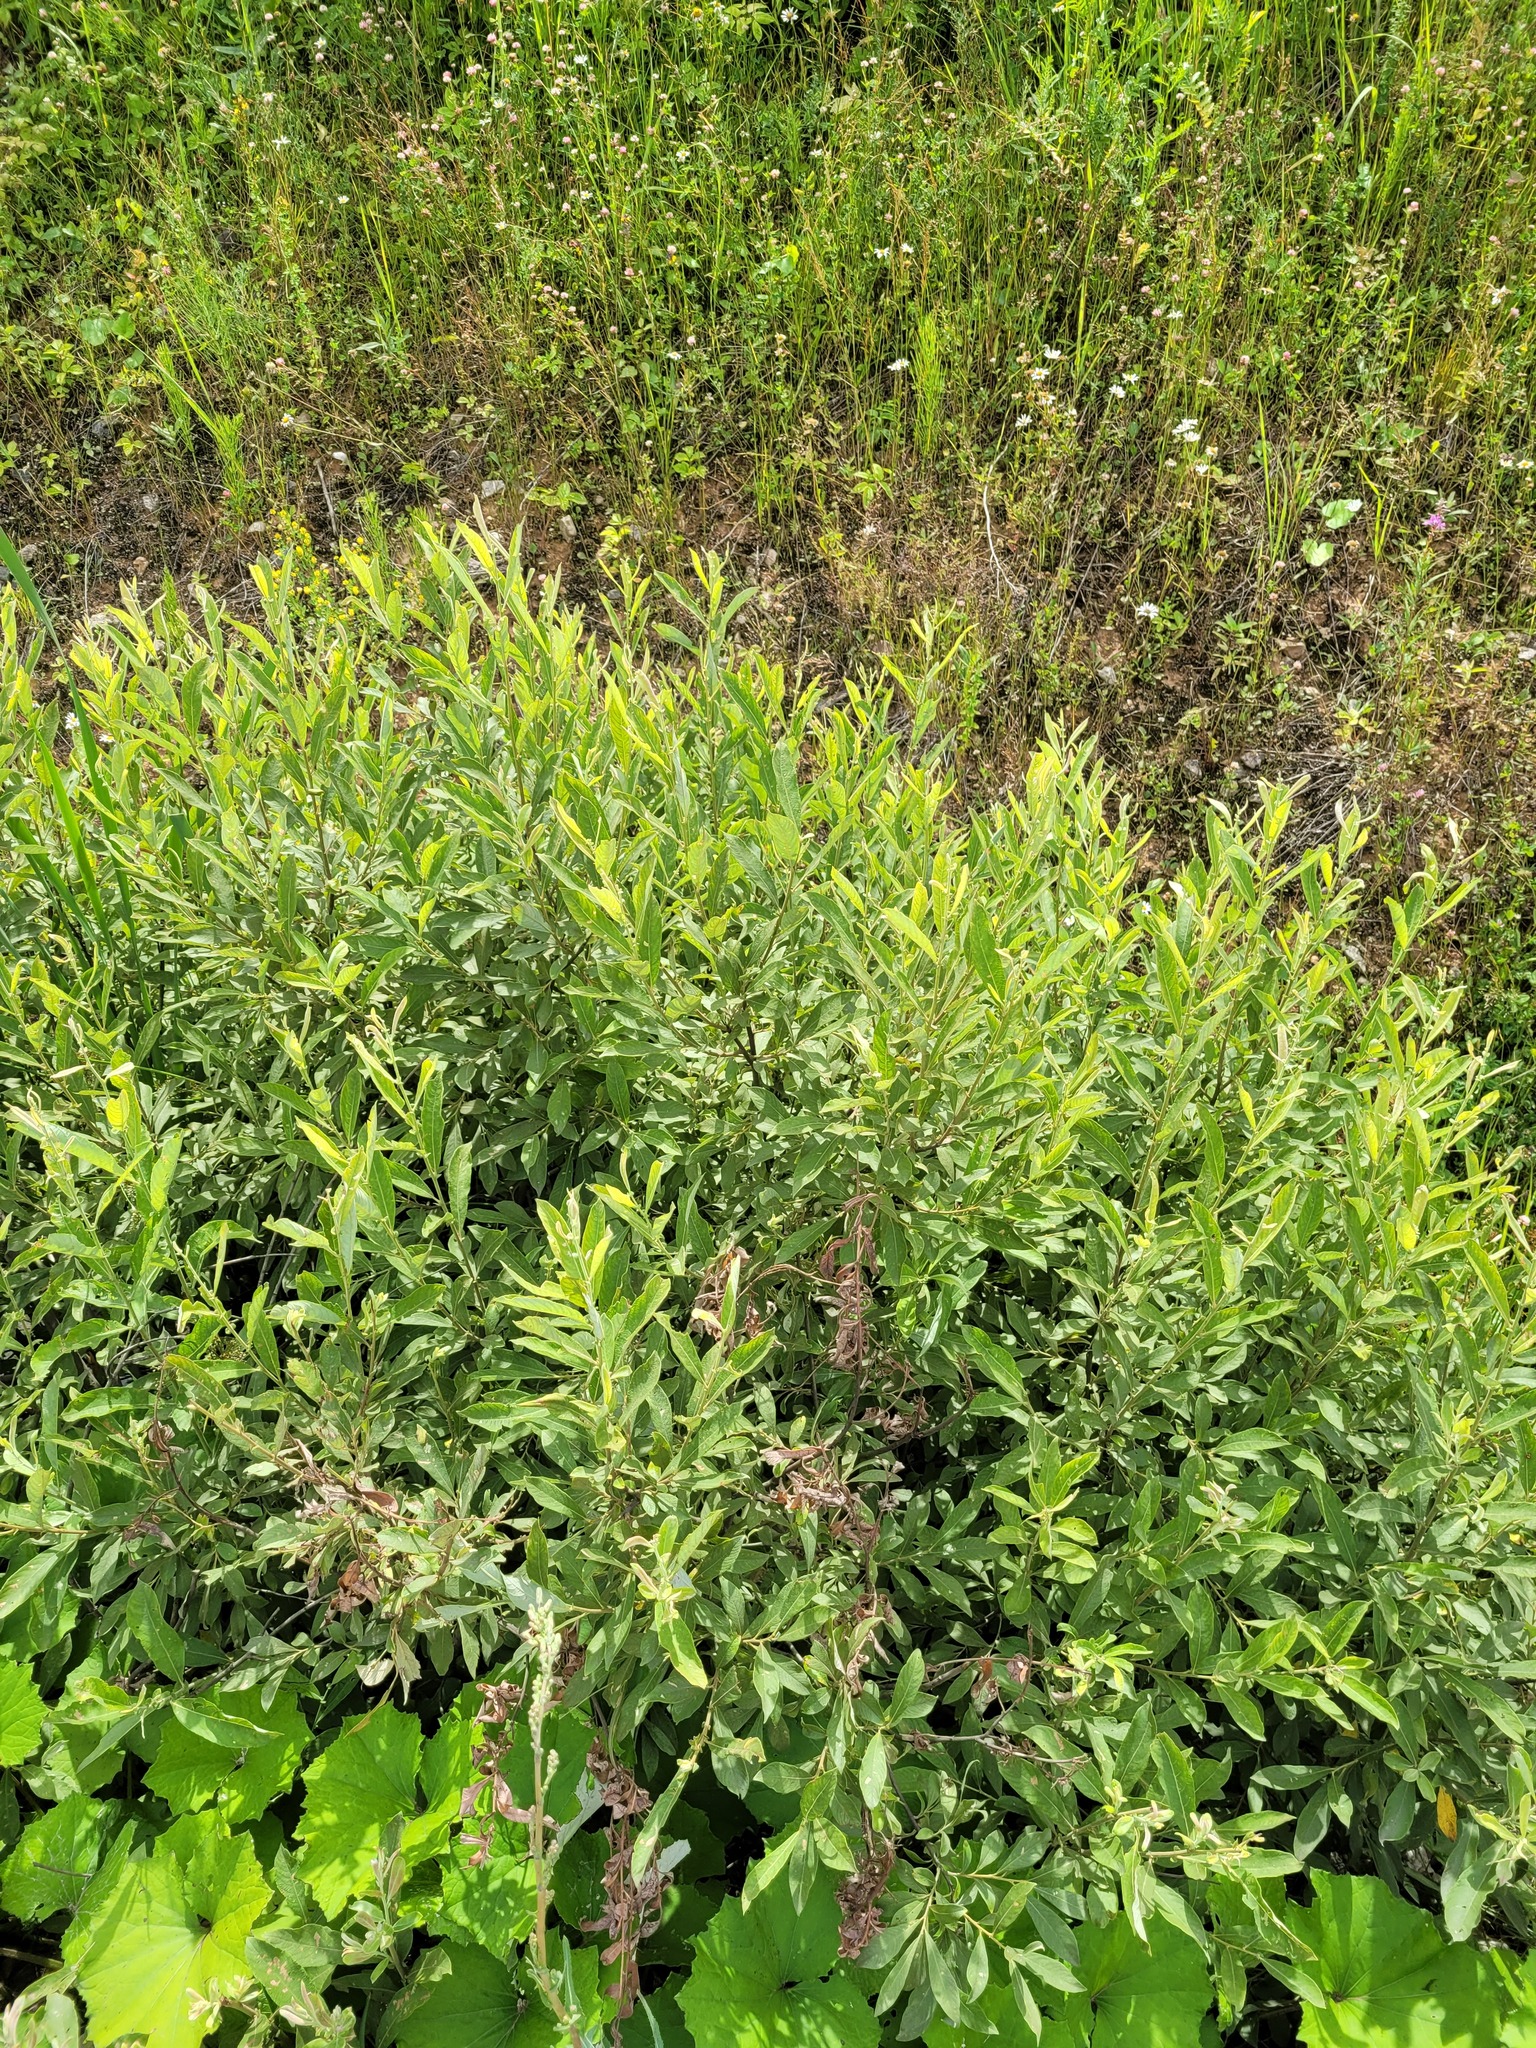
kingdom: Plantae
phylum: Tracheophyta
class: Magnoliopsida
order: Malpighiales
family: Salicaceae
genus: Salix
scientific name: Salix cinerea
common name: Common sallow
